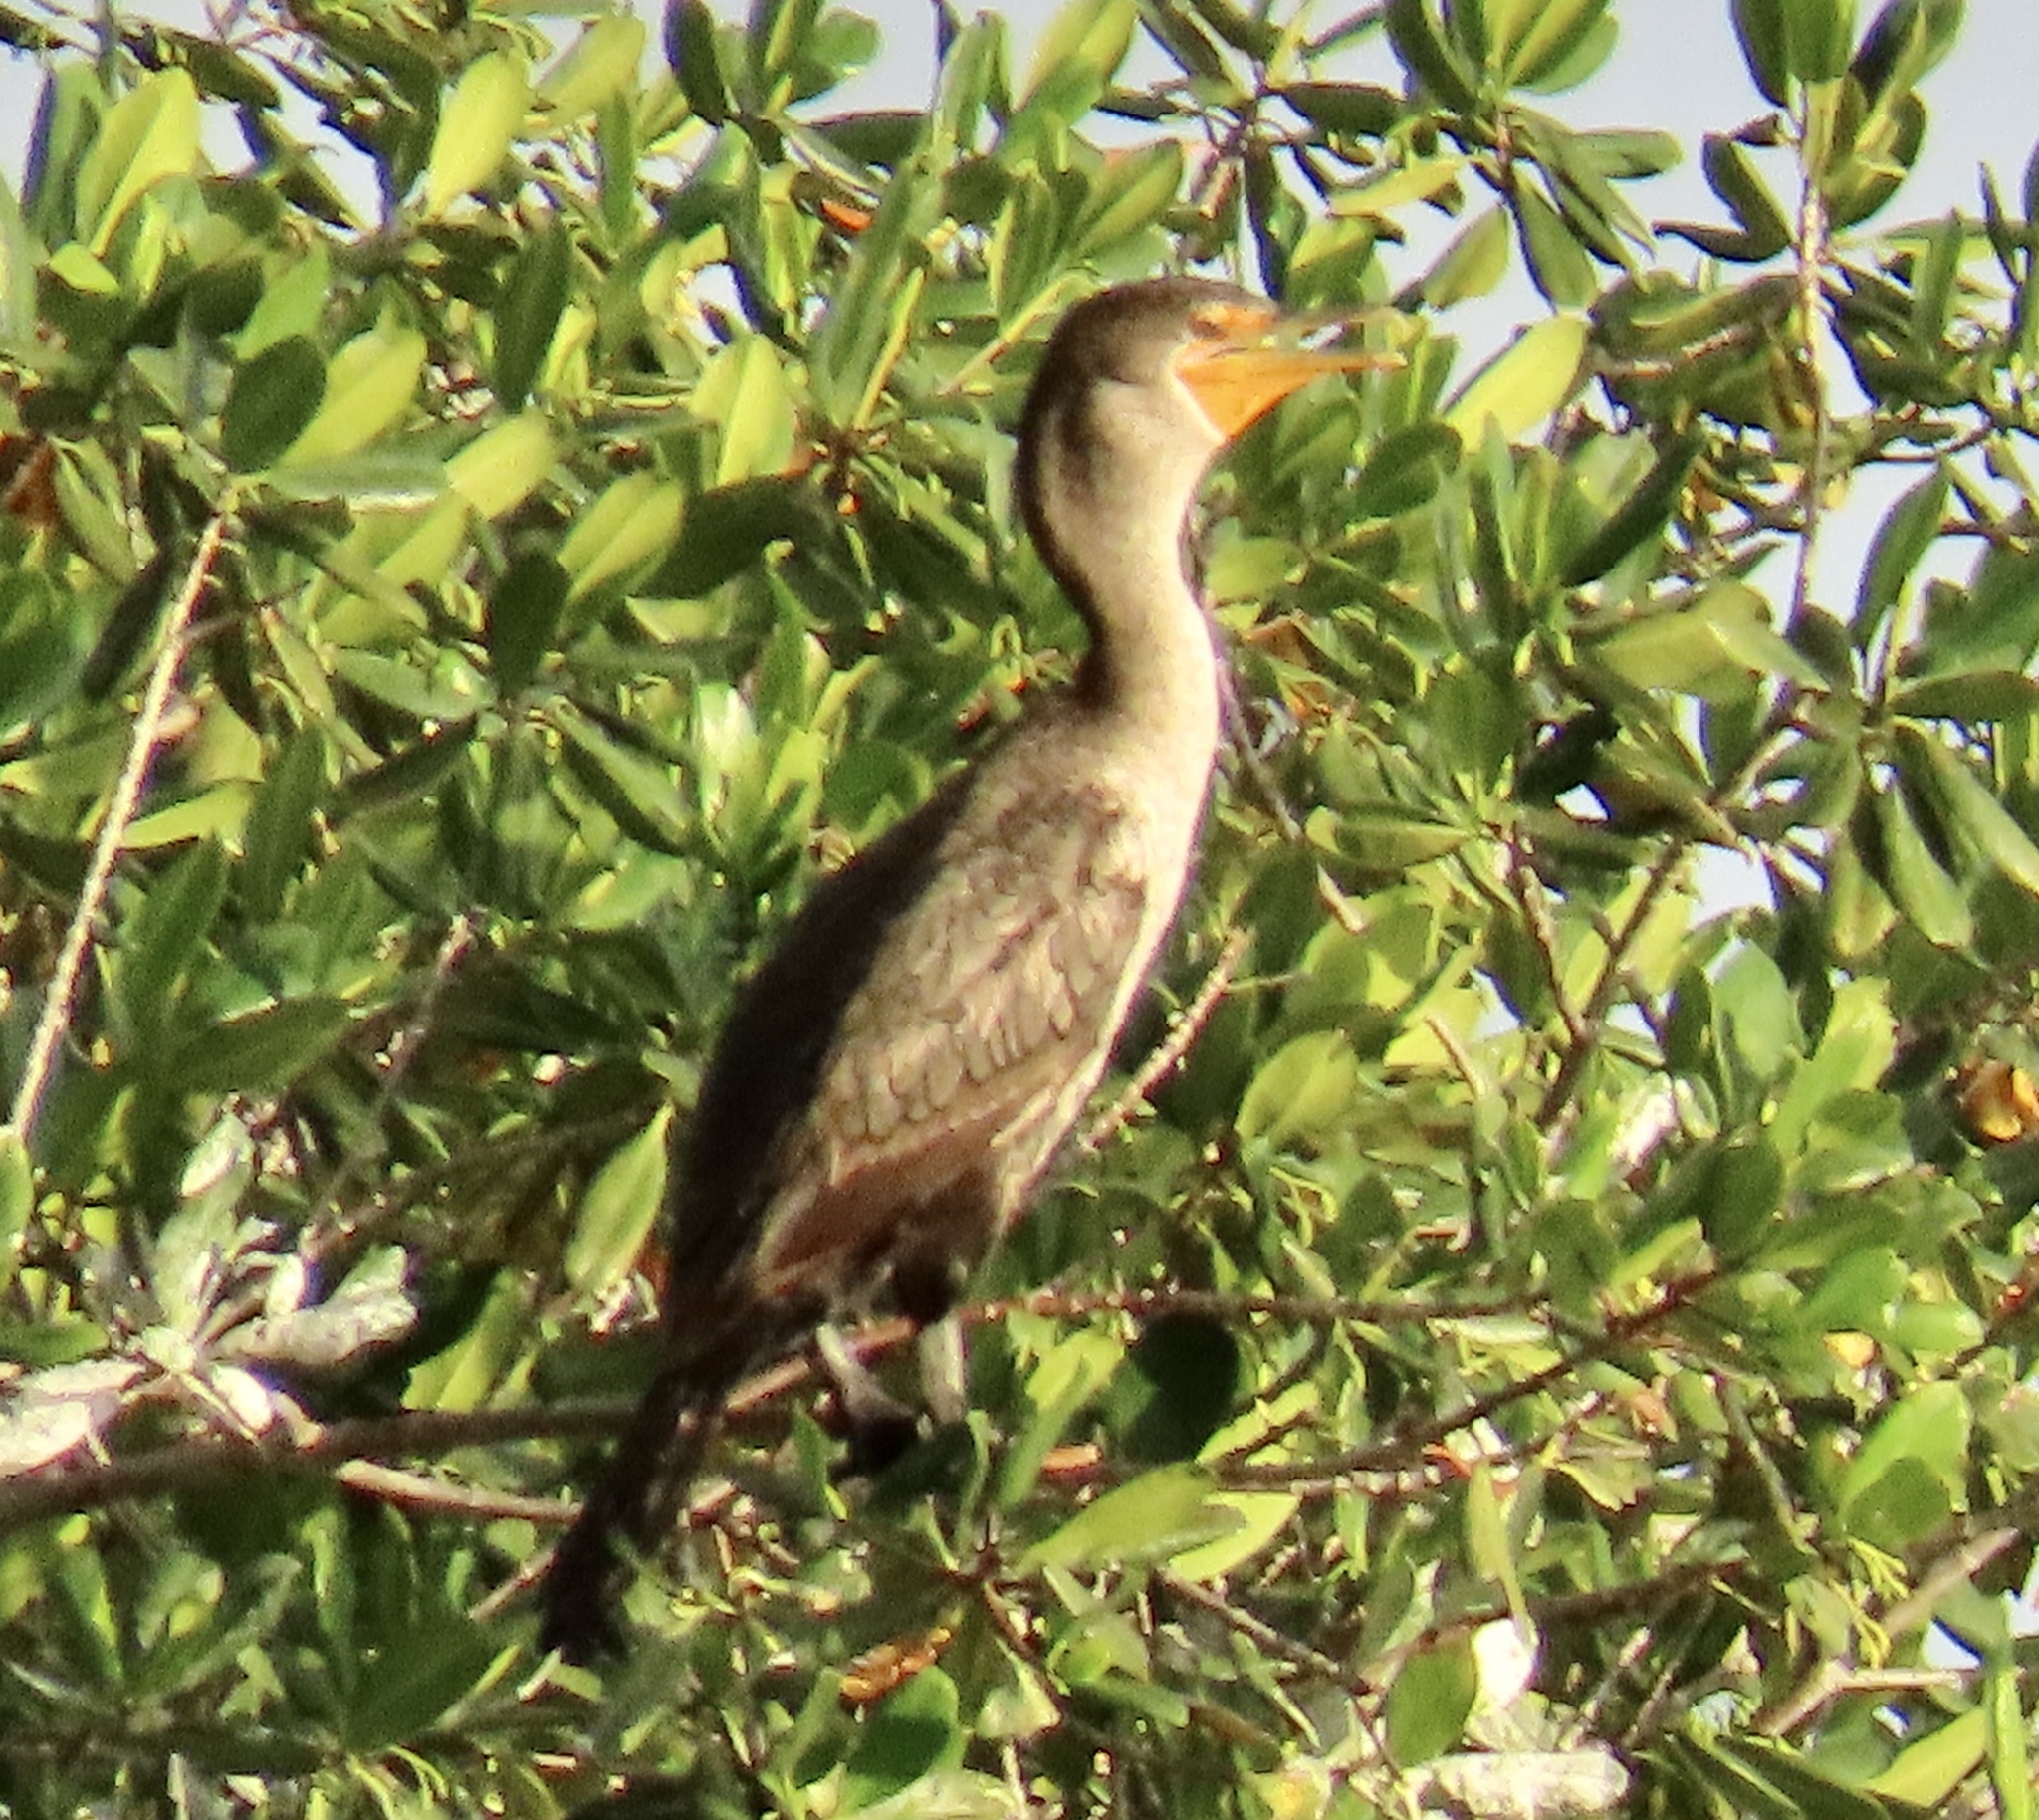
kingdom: Animalia
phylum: Chordata
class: Aves
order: Suliformes
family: Phalacrocoracidae
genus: Phalacrocorax
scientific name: Phalacrocorax brasilianus
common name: Neotropic cormorant
